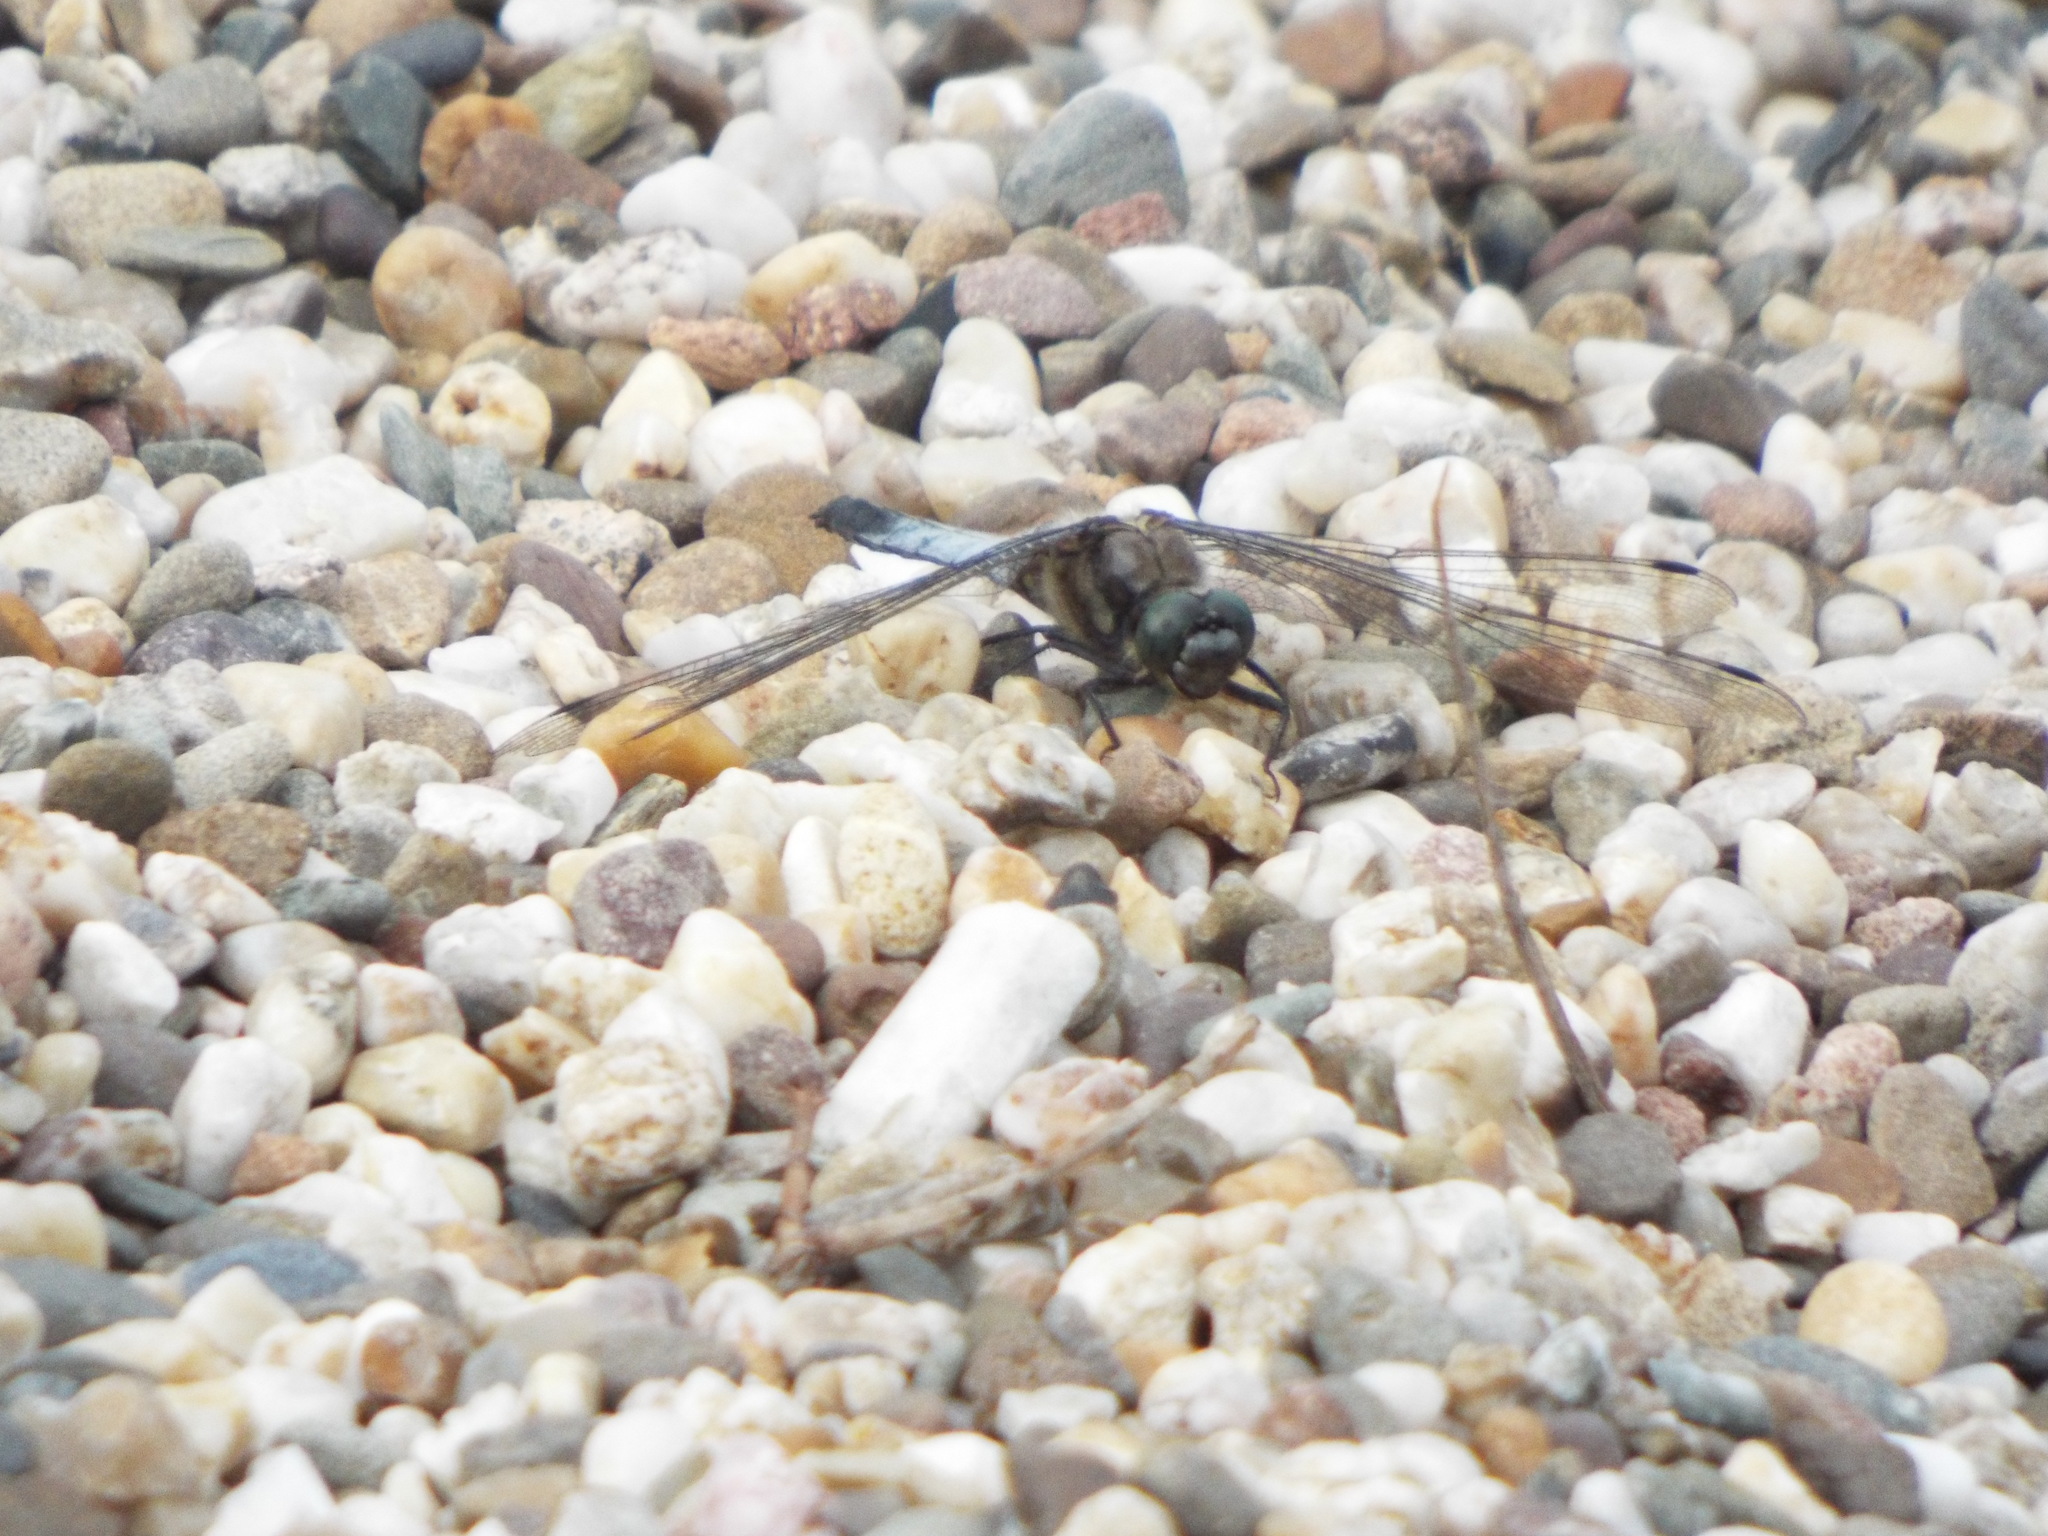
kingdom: Animalia
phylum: Arthropoda
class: Insecta
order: Odonata
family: Libellulidae
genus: Orthetrum
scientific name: Orthetrum cancellatum
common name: Black-tailed skimmer
